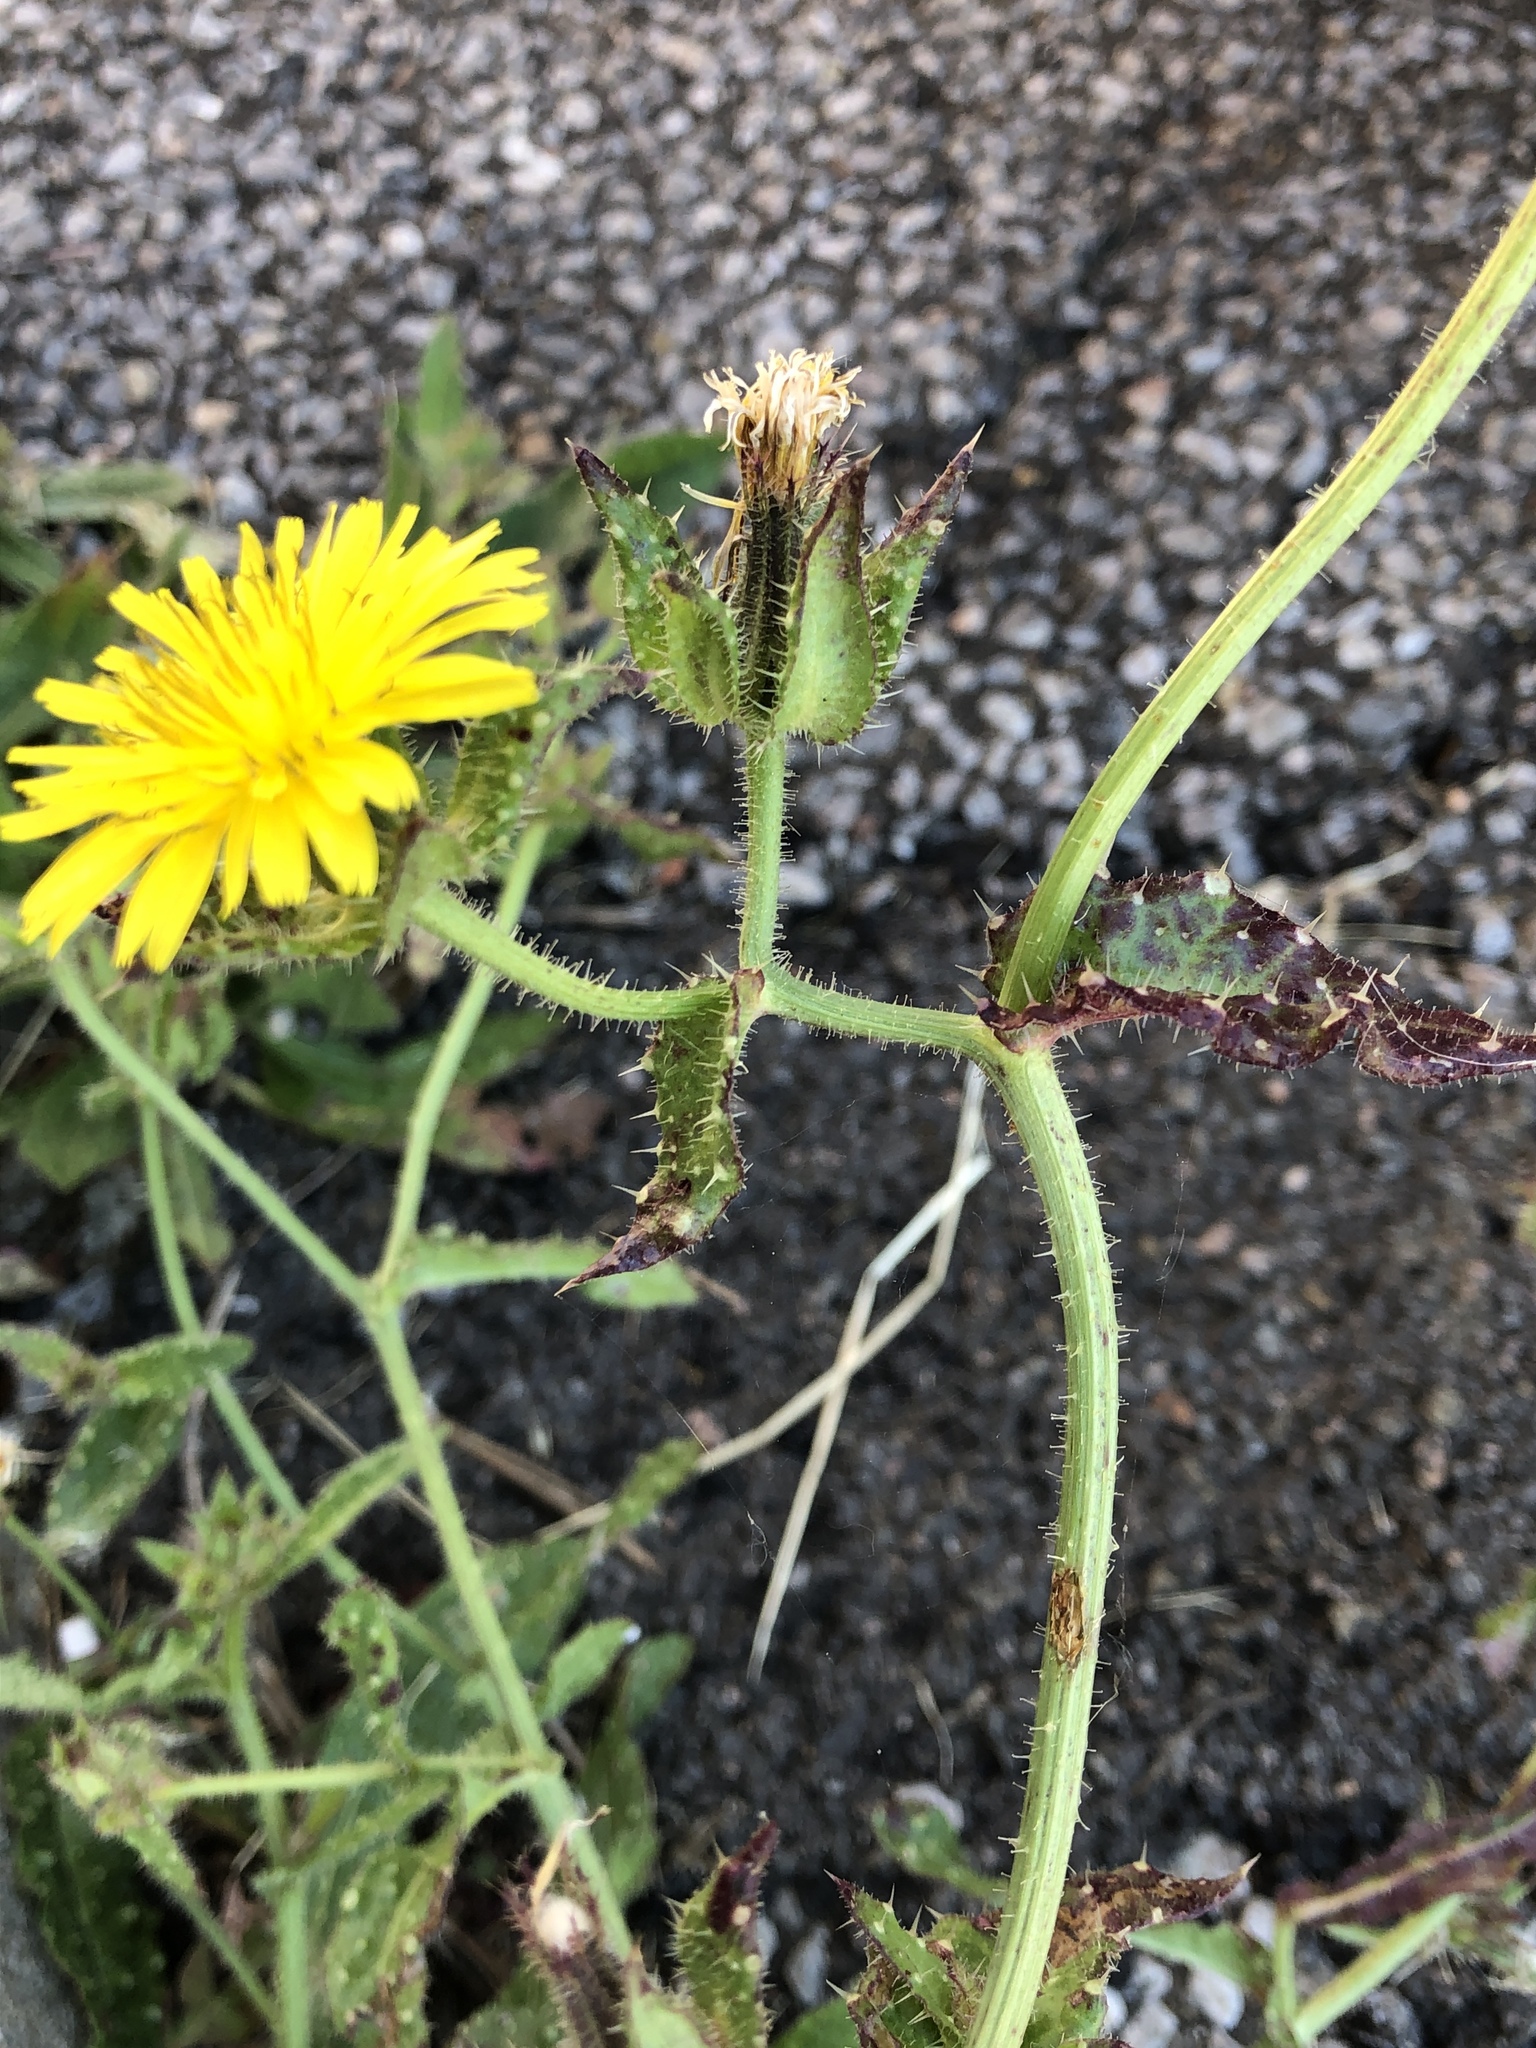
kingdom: Plantae
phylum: Tracheophyta
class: Magnoliopsida
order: Asterales
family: Asteraceae
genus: Helminthotheca
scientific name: Helminthotheca echioides
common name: Ox-tongue
